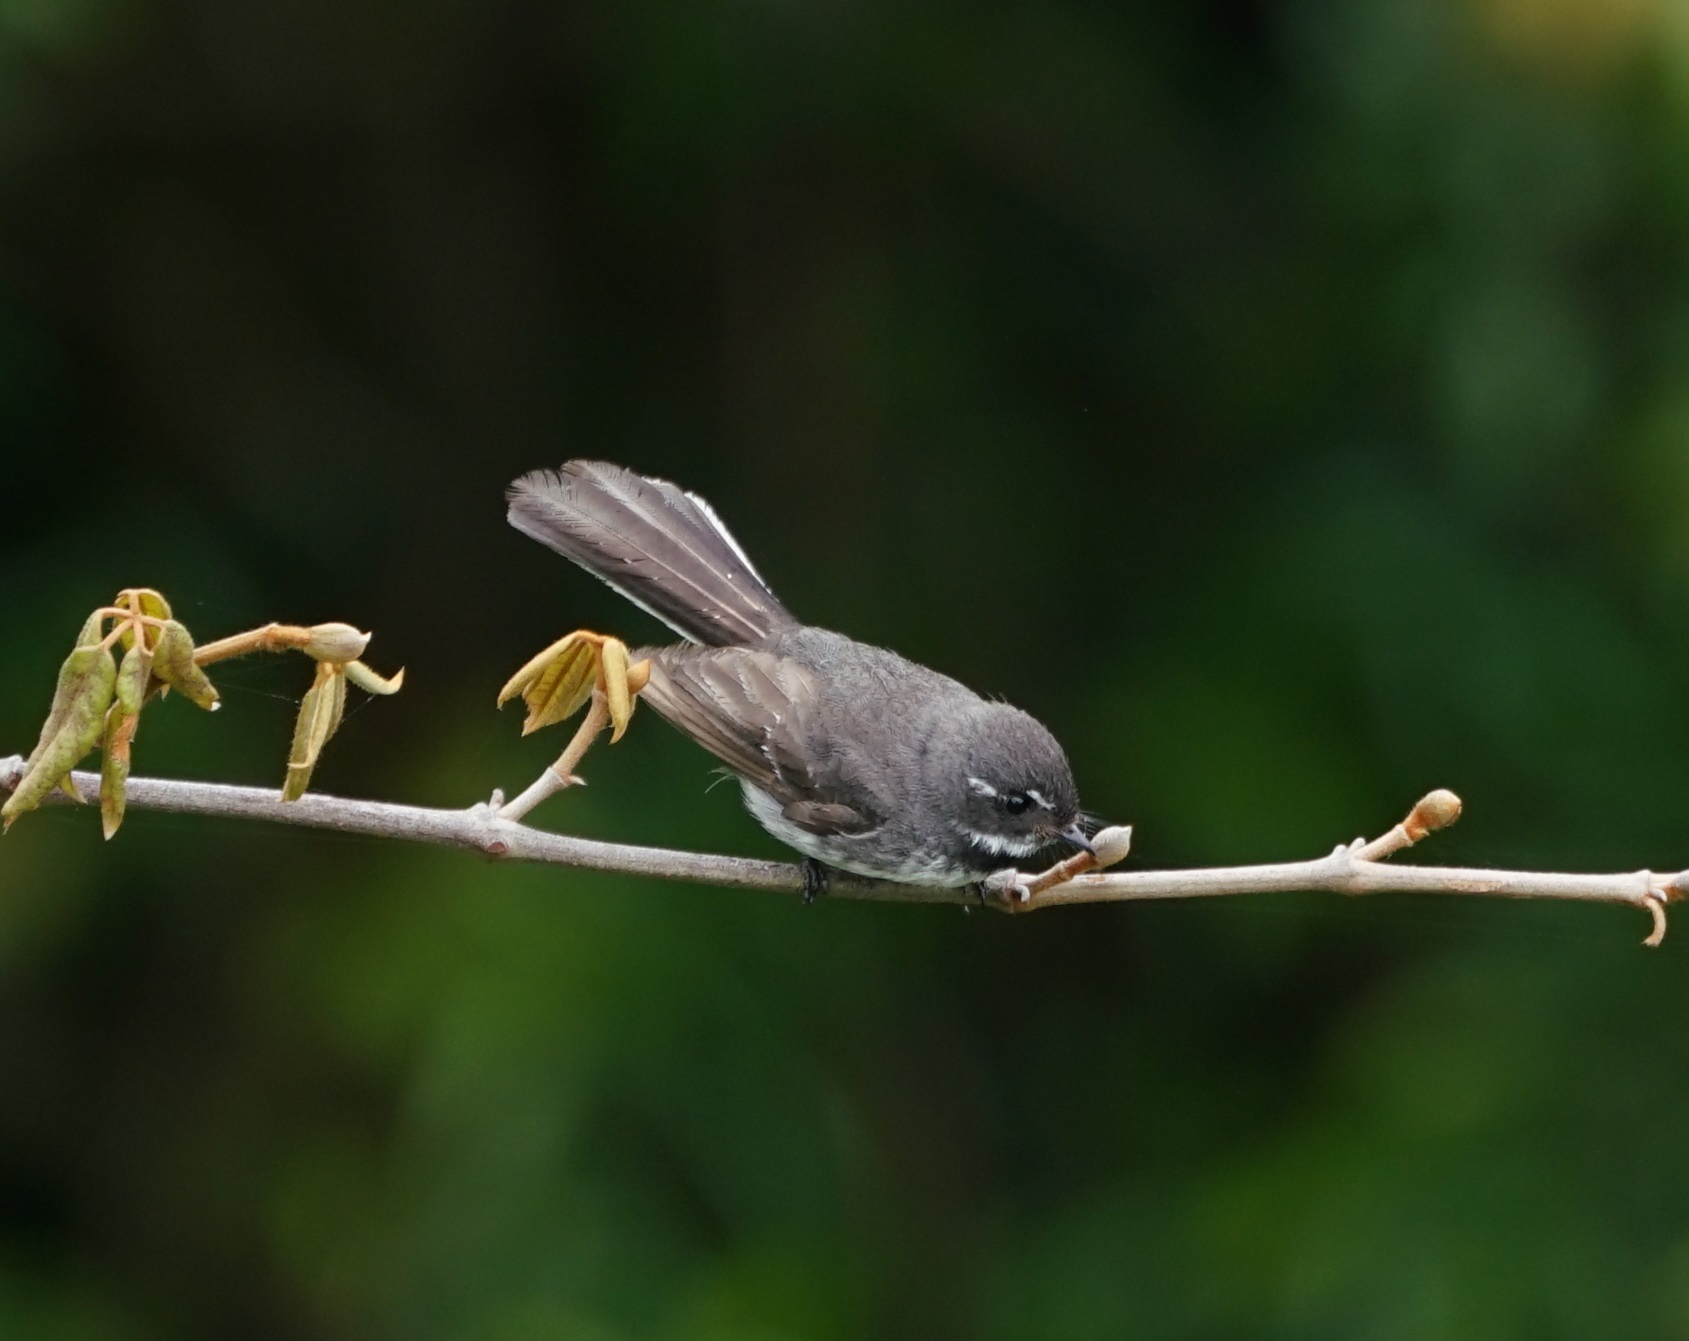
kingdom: Animalia
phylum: Chordata
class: Aves
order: Passeriformes
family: Rhipiduridae
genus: Rhipidura
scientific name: Rhipidura albiscapa
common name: Grey fantail
